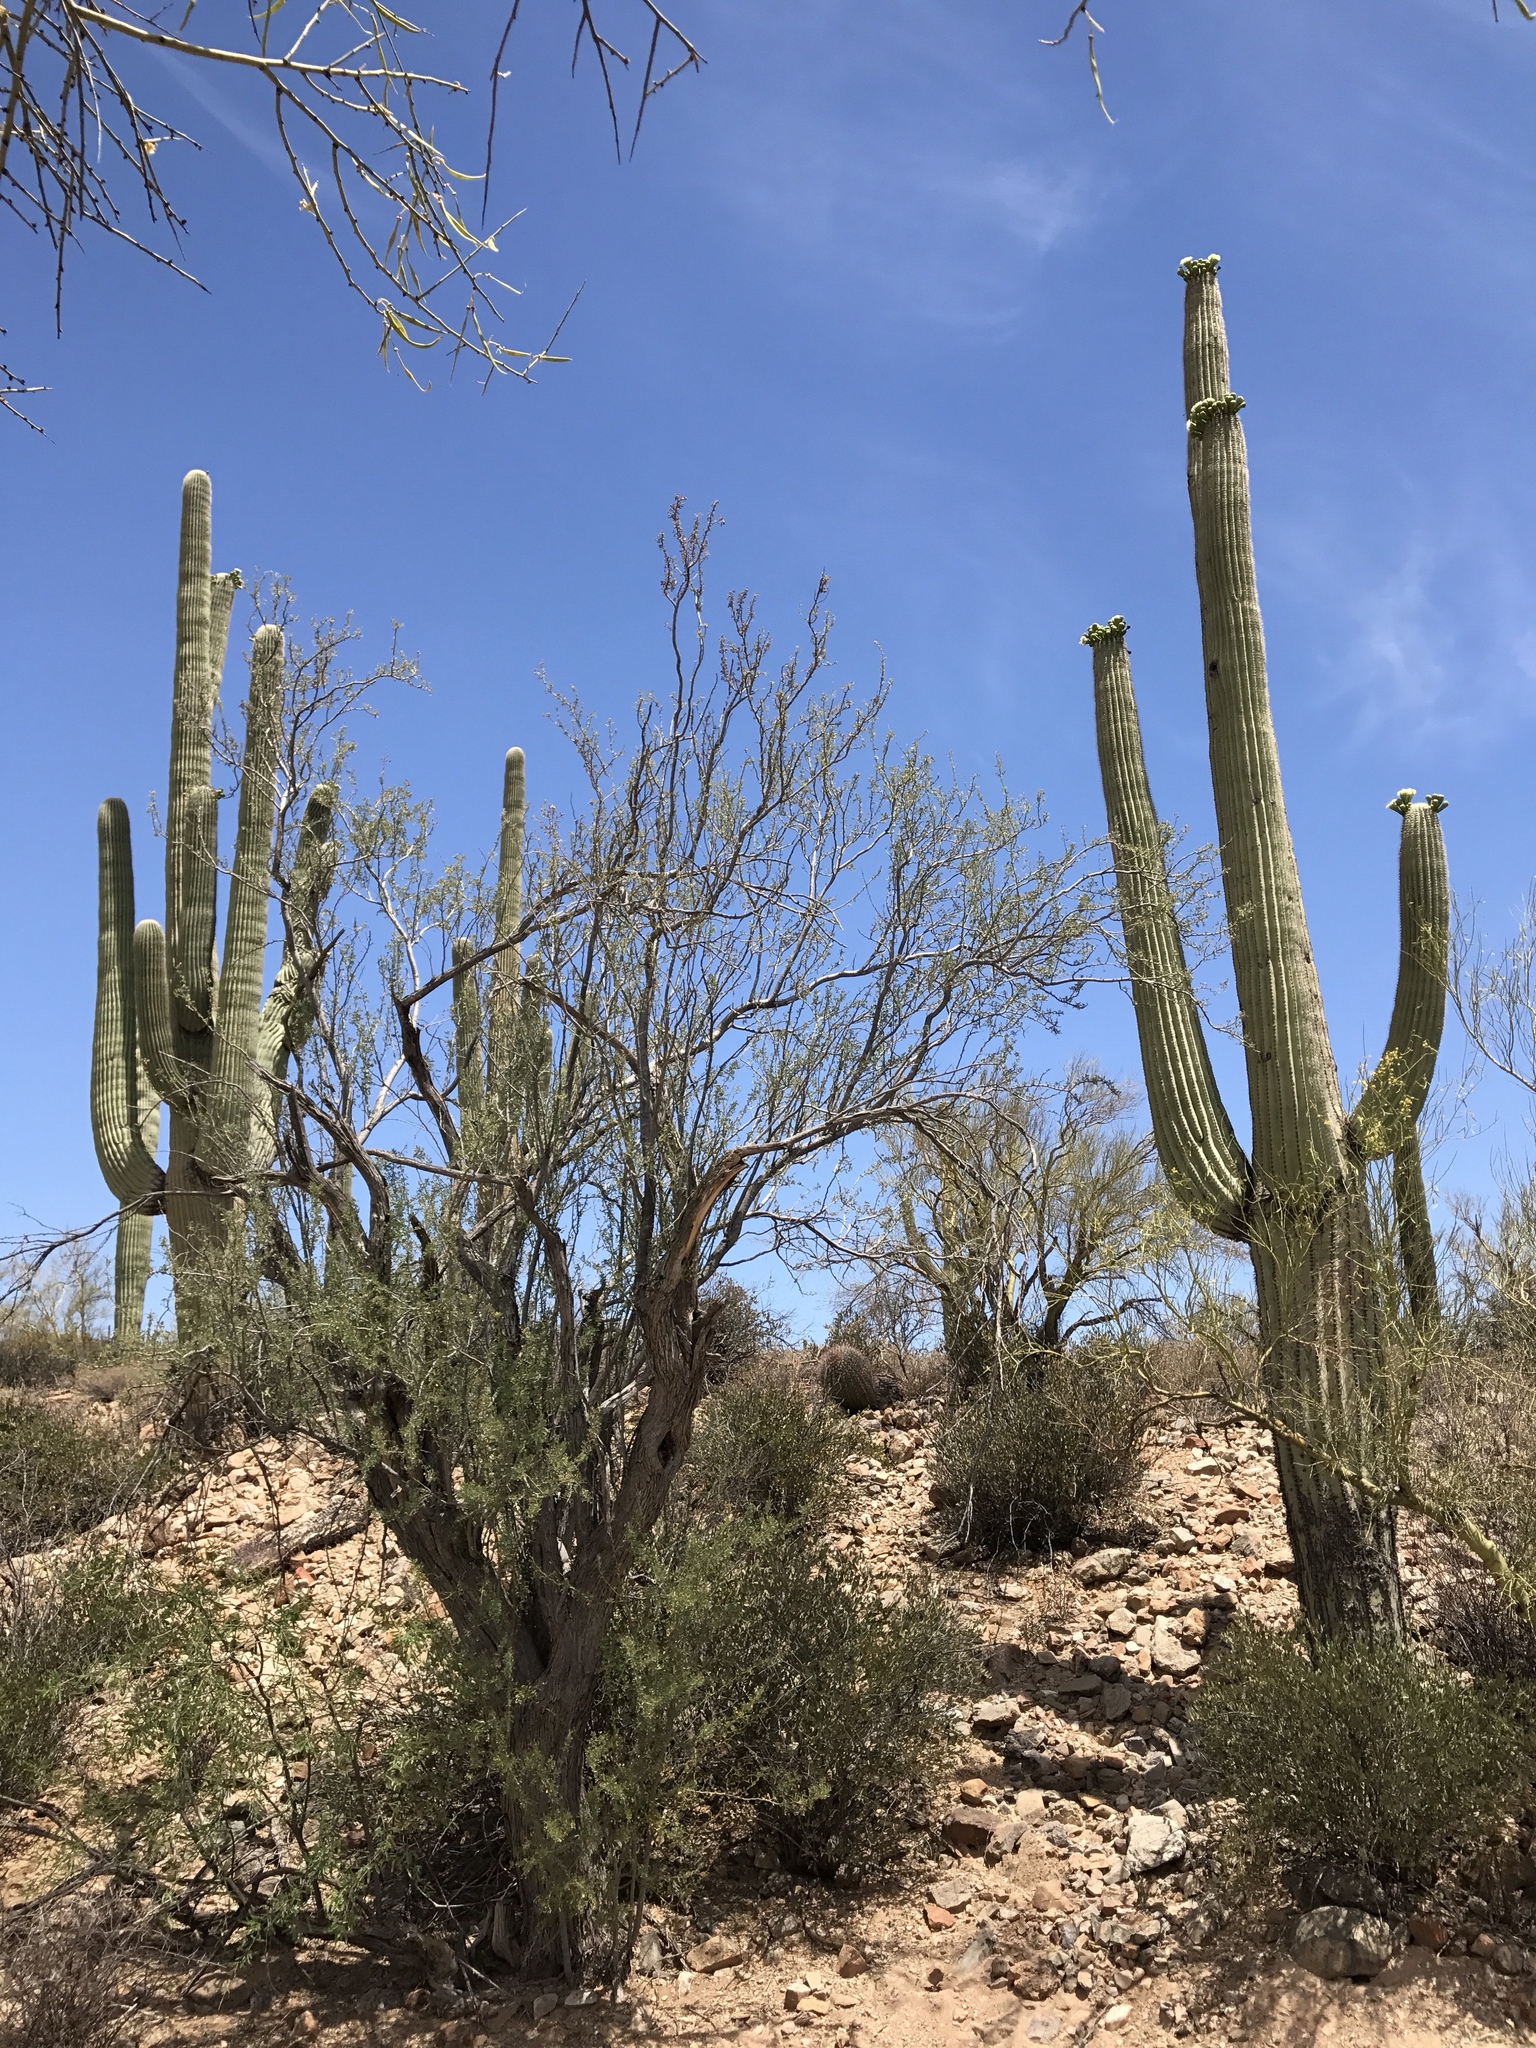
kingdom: Plantae
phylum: Tracheophyta
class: Magnoliopsida
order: Fabales
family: Fabaceae
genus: Olneya
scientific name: Olneya tesota
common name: Desert ironwood
